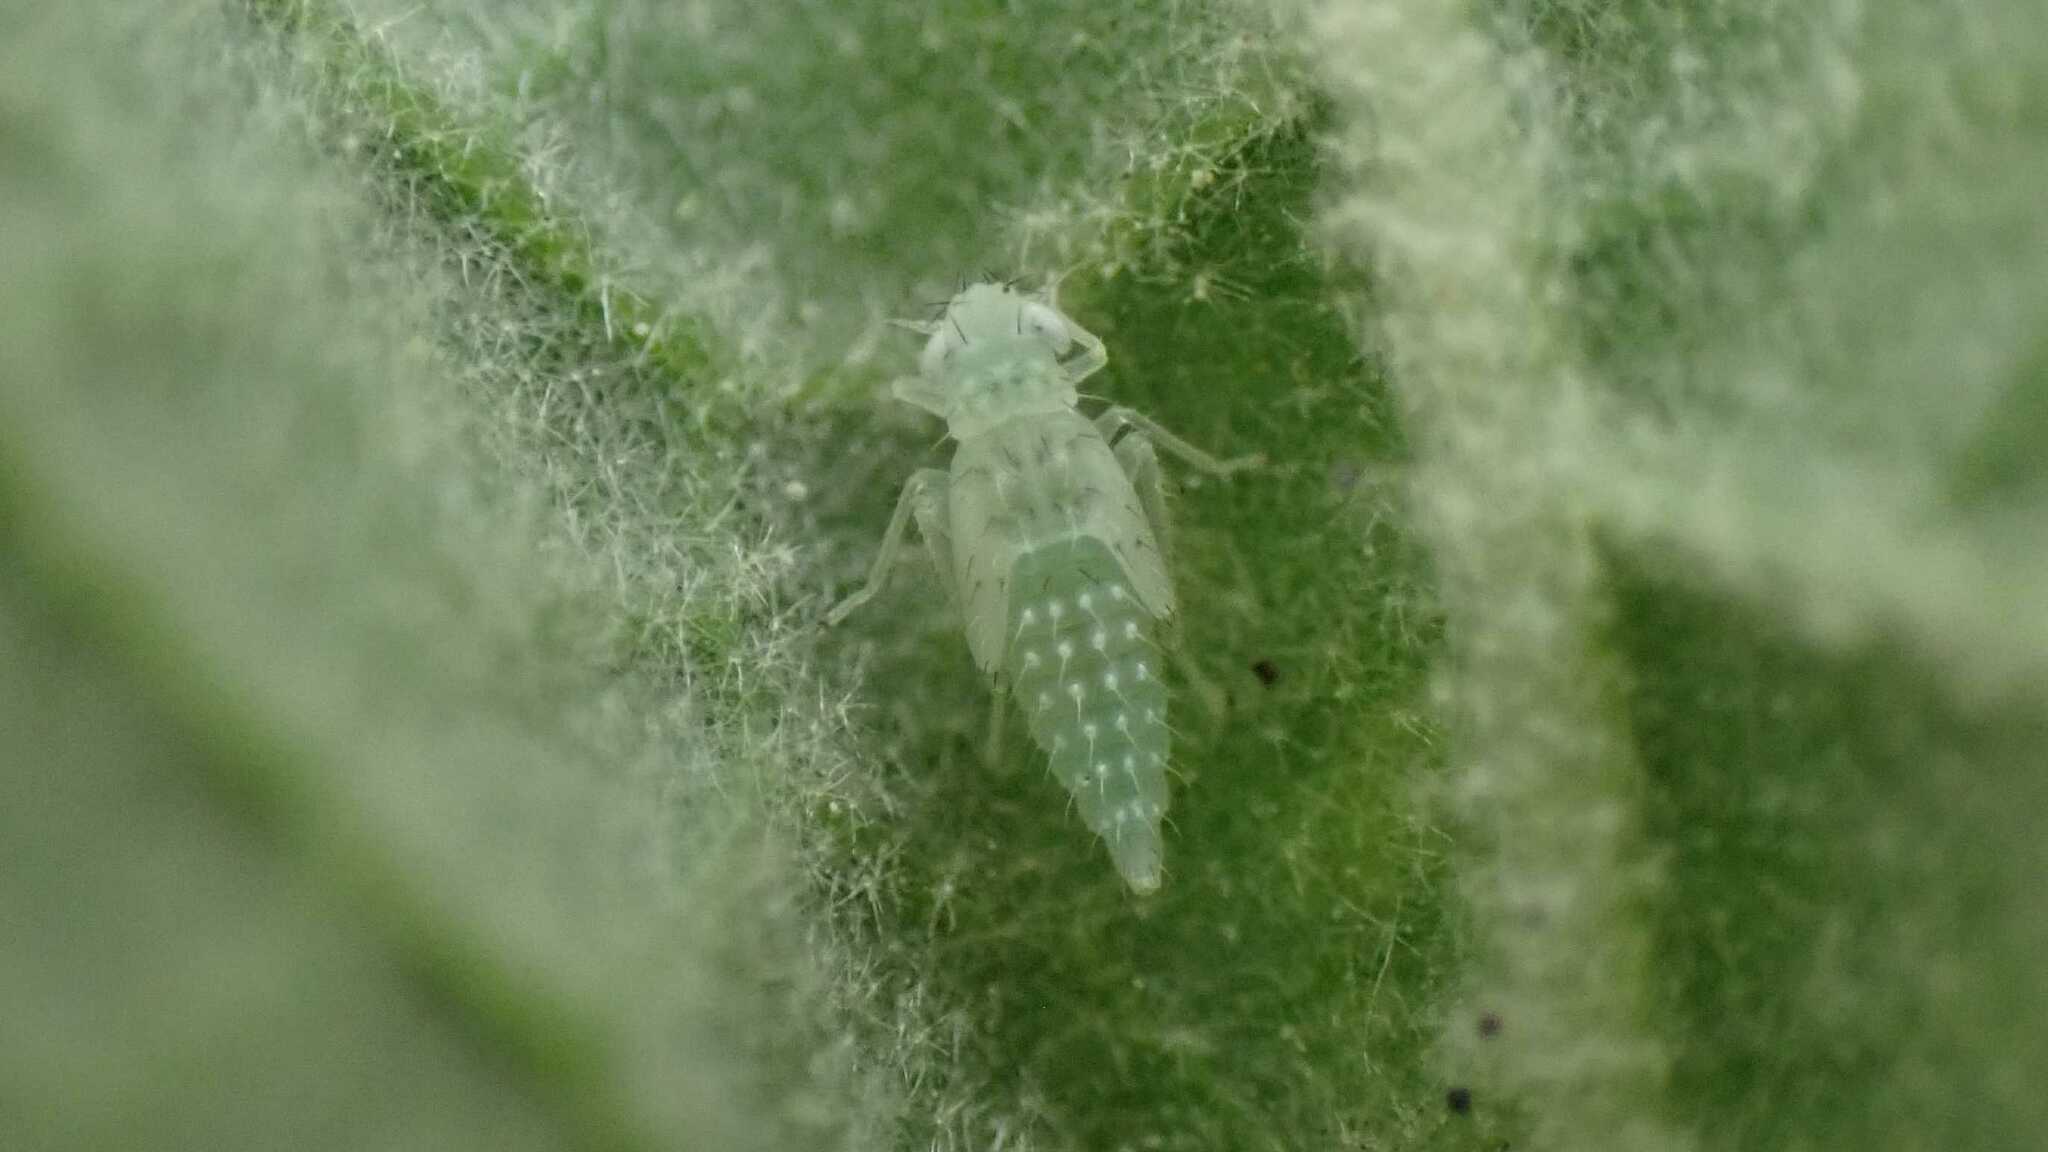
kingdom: Animalia
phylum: Arthropoda
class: Insecta
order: Hemiptera
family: Cicadellidae
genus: Micantulina
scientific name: Micantulina stigmatipennis
